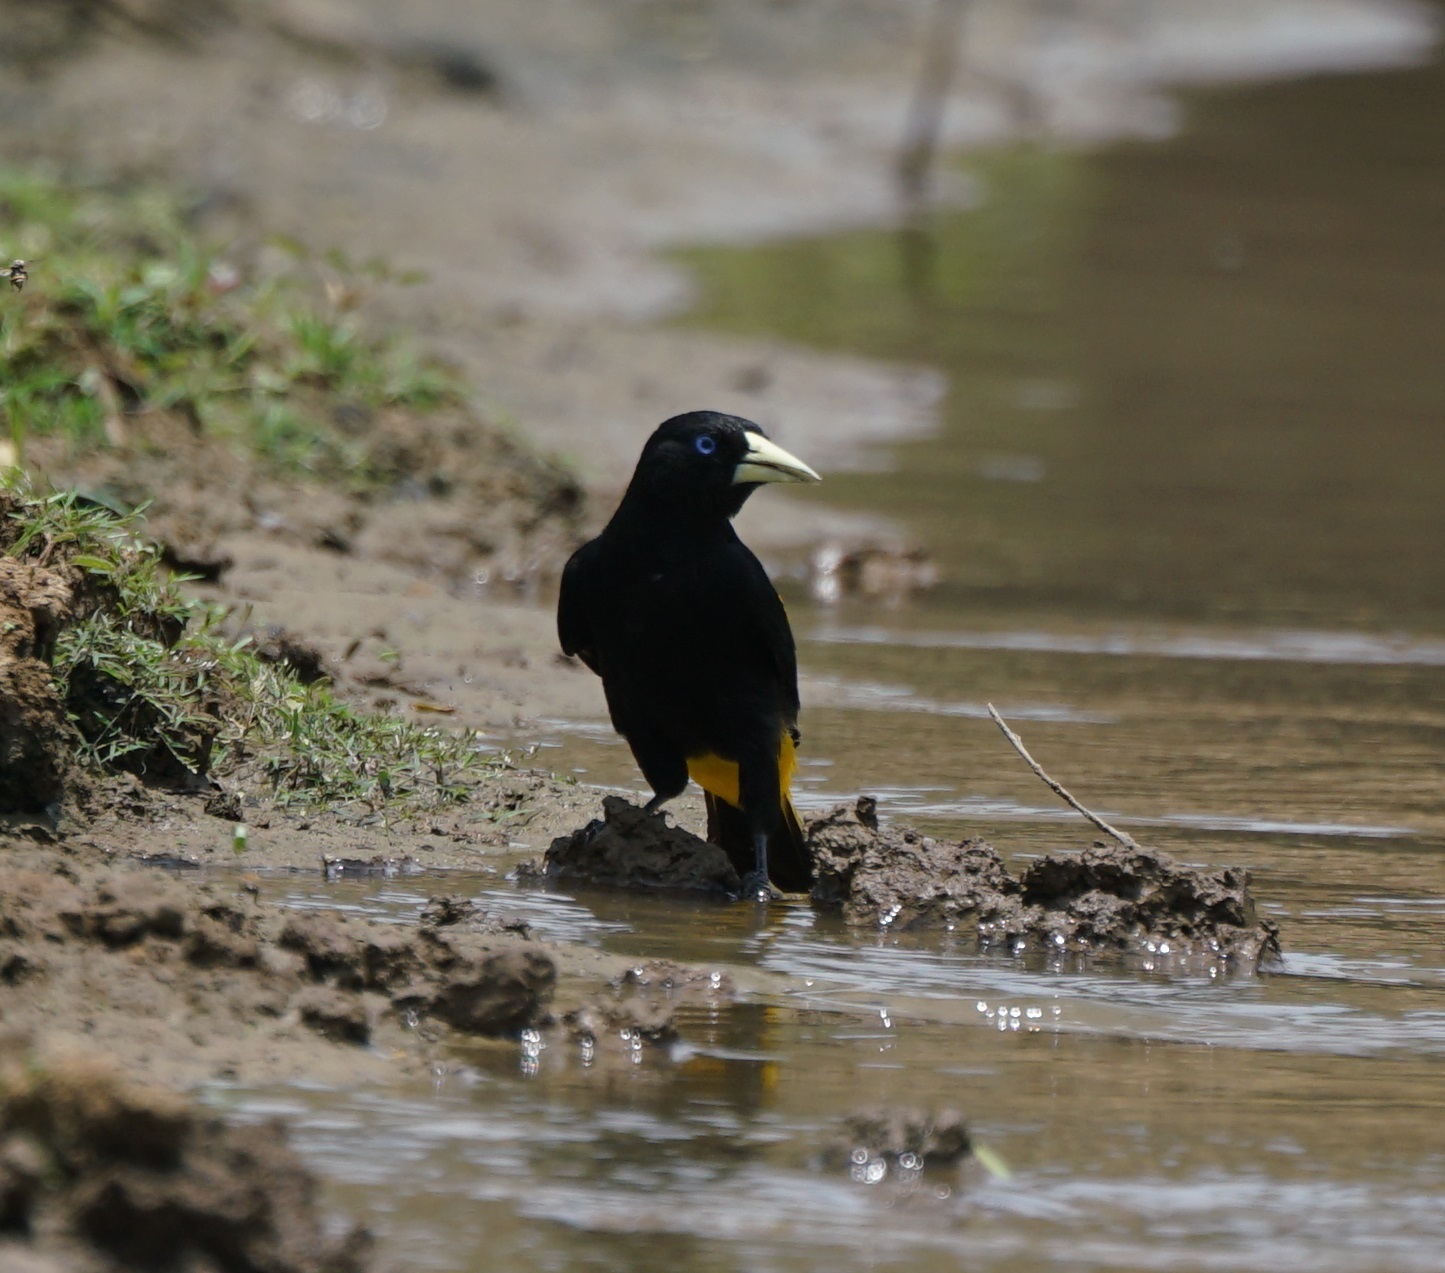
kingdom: Animalia
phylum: Chordata
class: Aves
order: Passeriformes
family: Icteridae
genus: Cacicus
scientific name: Cacicus cela
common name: Yellow-rumped cacique
